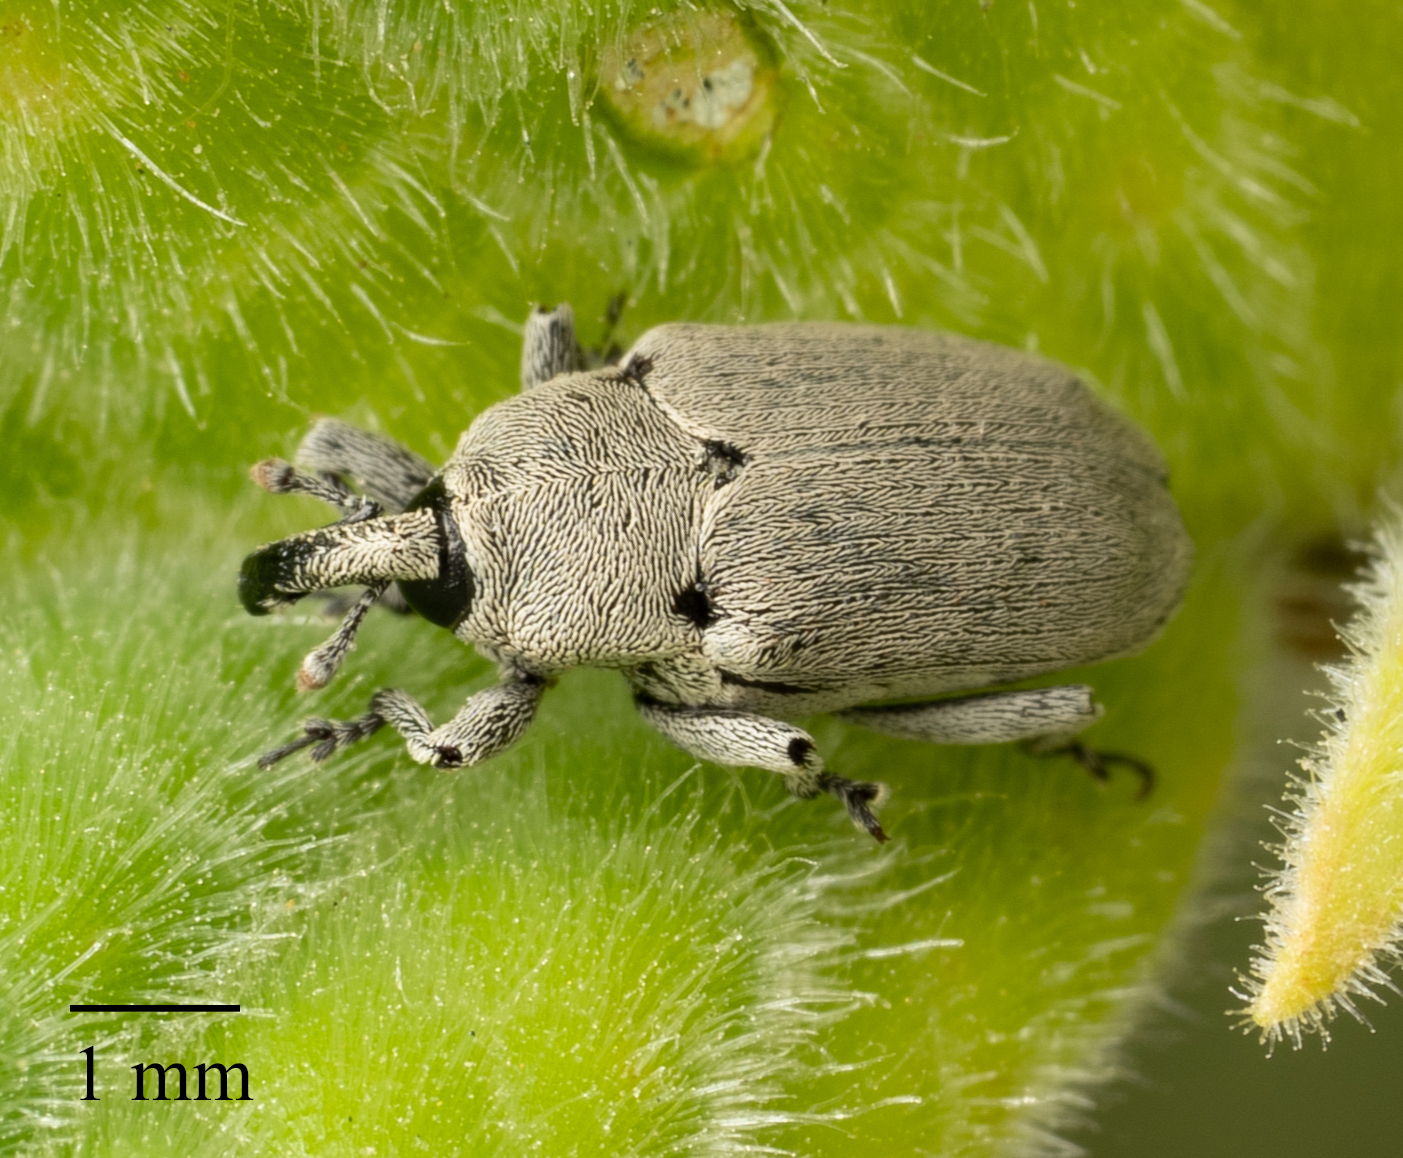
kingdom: Animalia
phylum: Arthropoda
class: Insecta
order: Coleoptera
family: Curculionidae
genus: Trichobaris
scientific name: Trichobaris compacta
